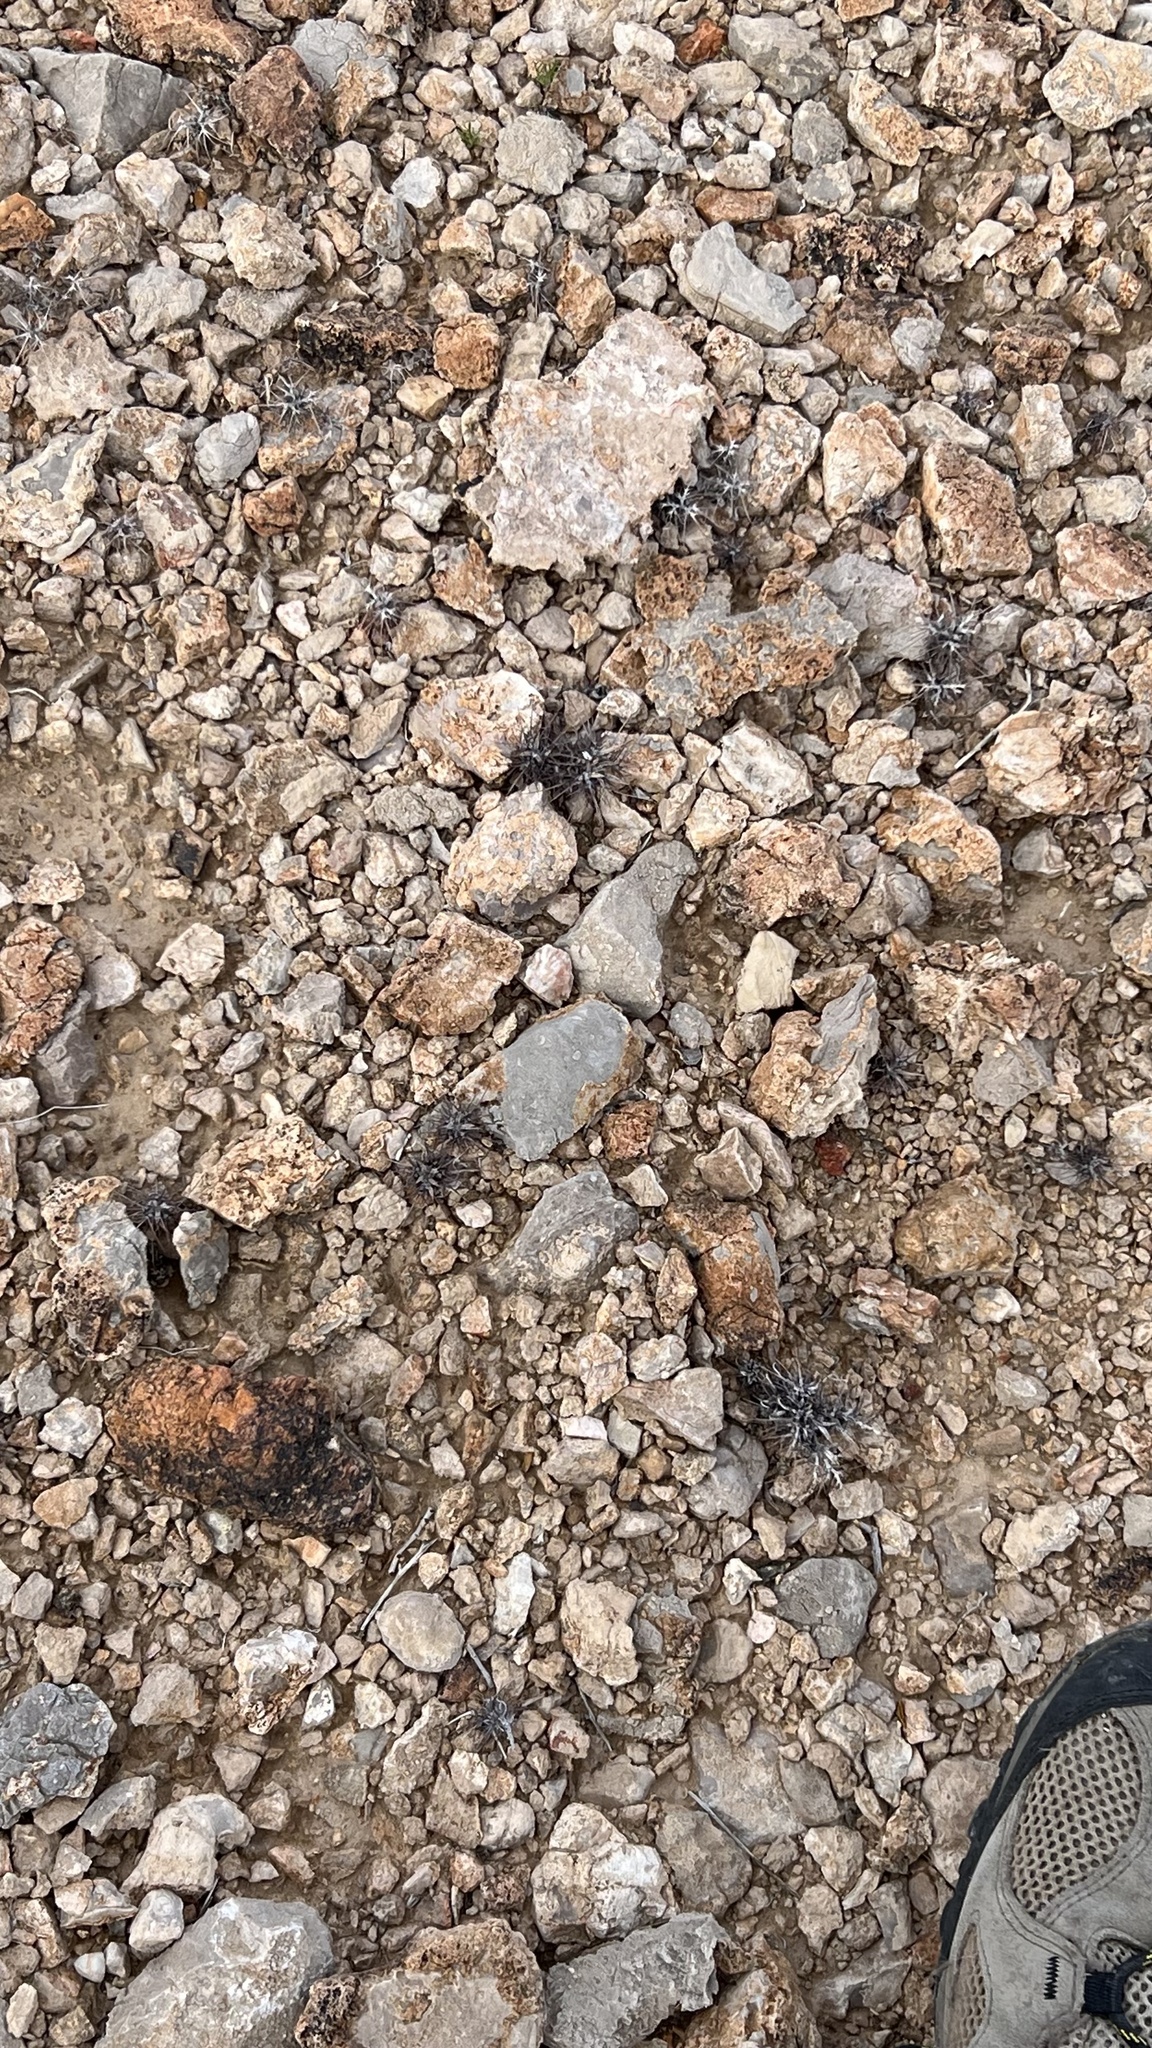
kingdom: Plantae
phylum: Tracheophyta
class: Magnoliopsida
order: Caryophyllales
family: Polygonaceae
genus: Chorizanthe
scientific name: Chorizanthe rigida
